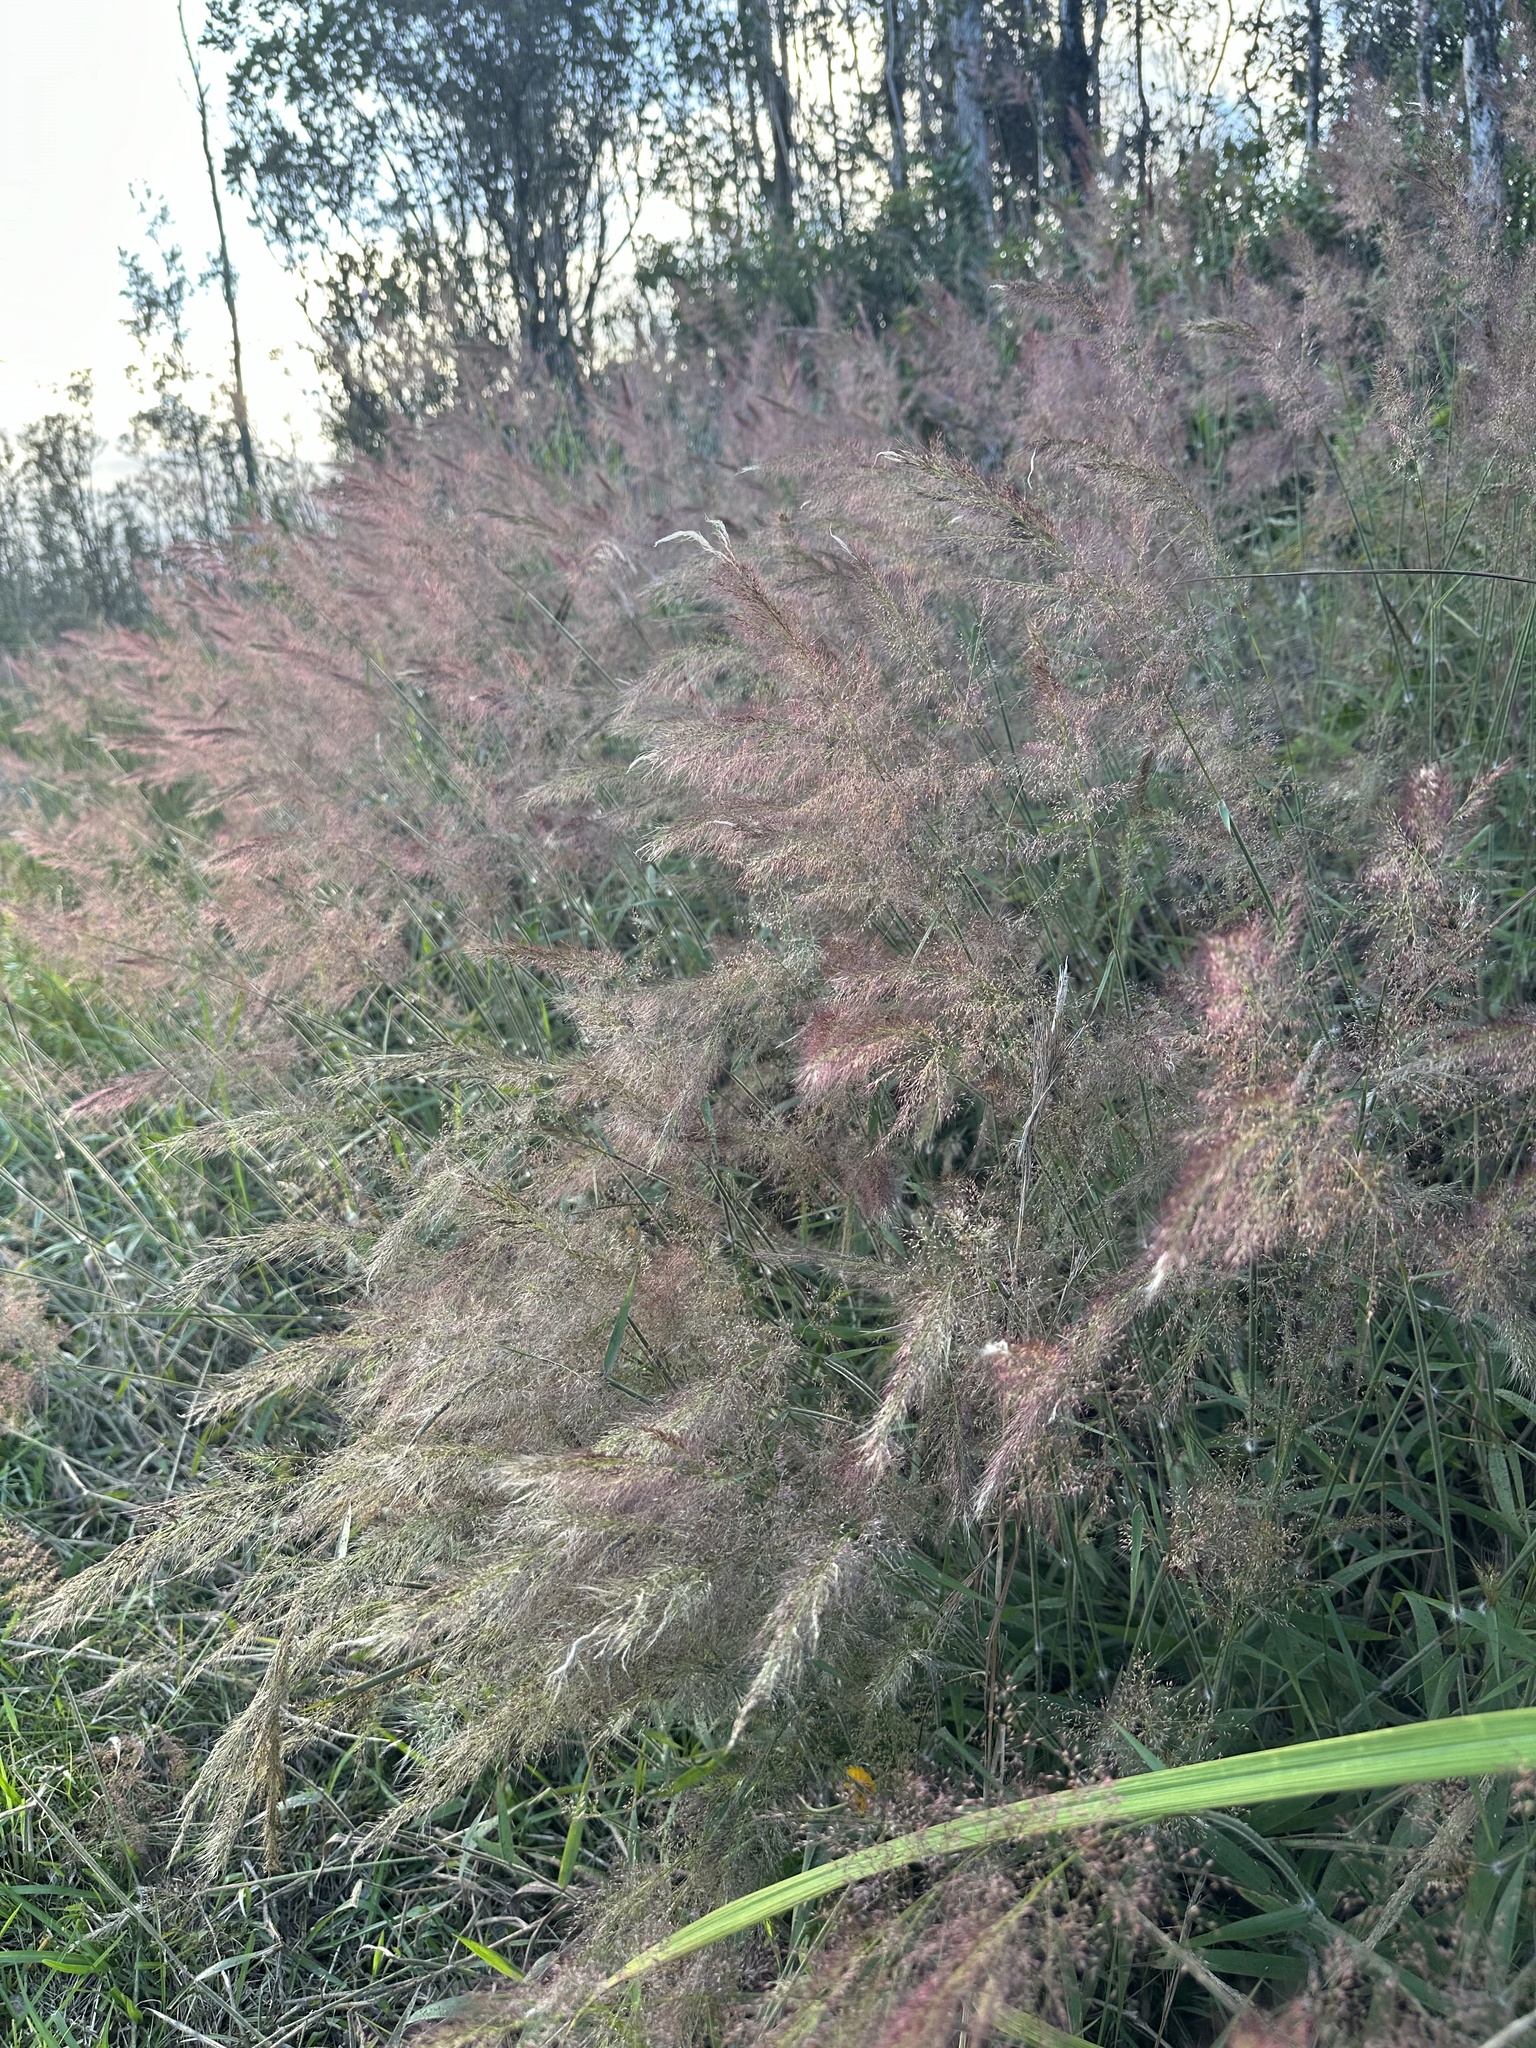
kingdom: Plantae
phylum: Tracheophyta
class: Liliopsida
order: Poales
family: Poaceae
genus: Melinis
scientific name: Melinis minutiflora
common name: Molassesgrass
